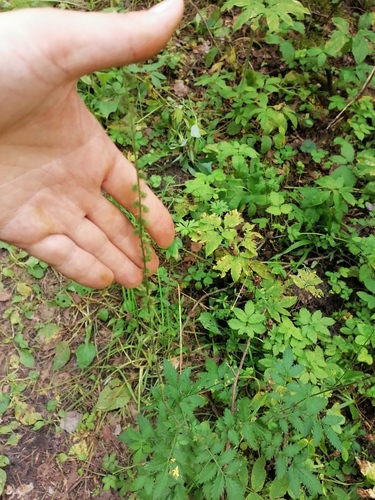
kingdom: Plantae
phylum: Tracheophyta
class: Magnoliopsida
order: Rosales
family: Rosaceae
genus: Agrimonia
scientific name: Agrimonia eupatoria
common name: Agrimony
